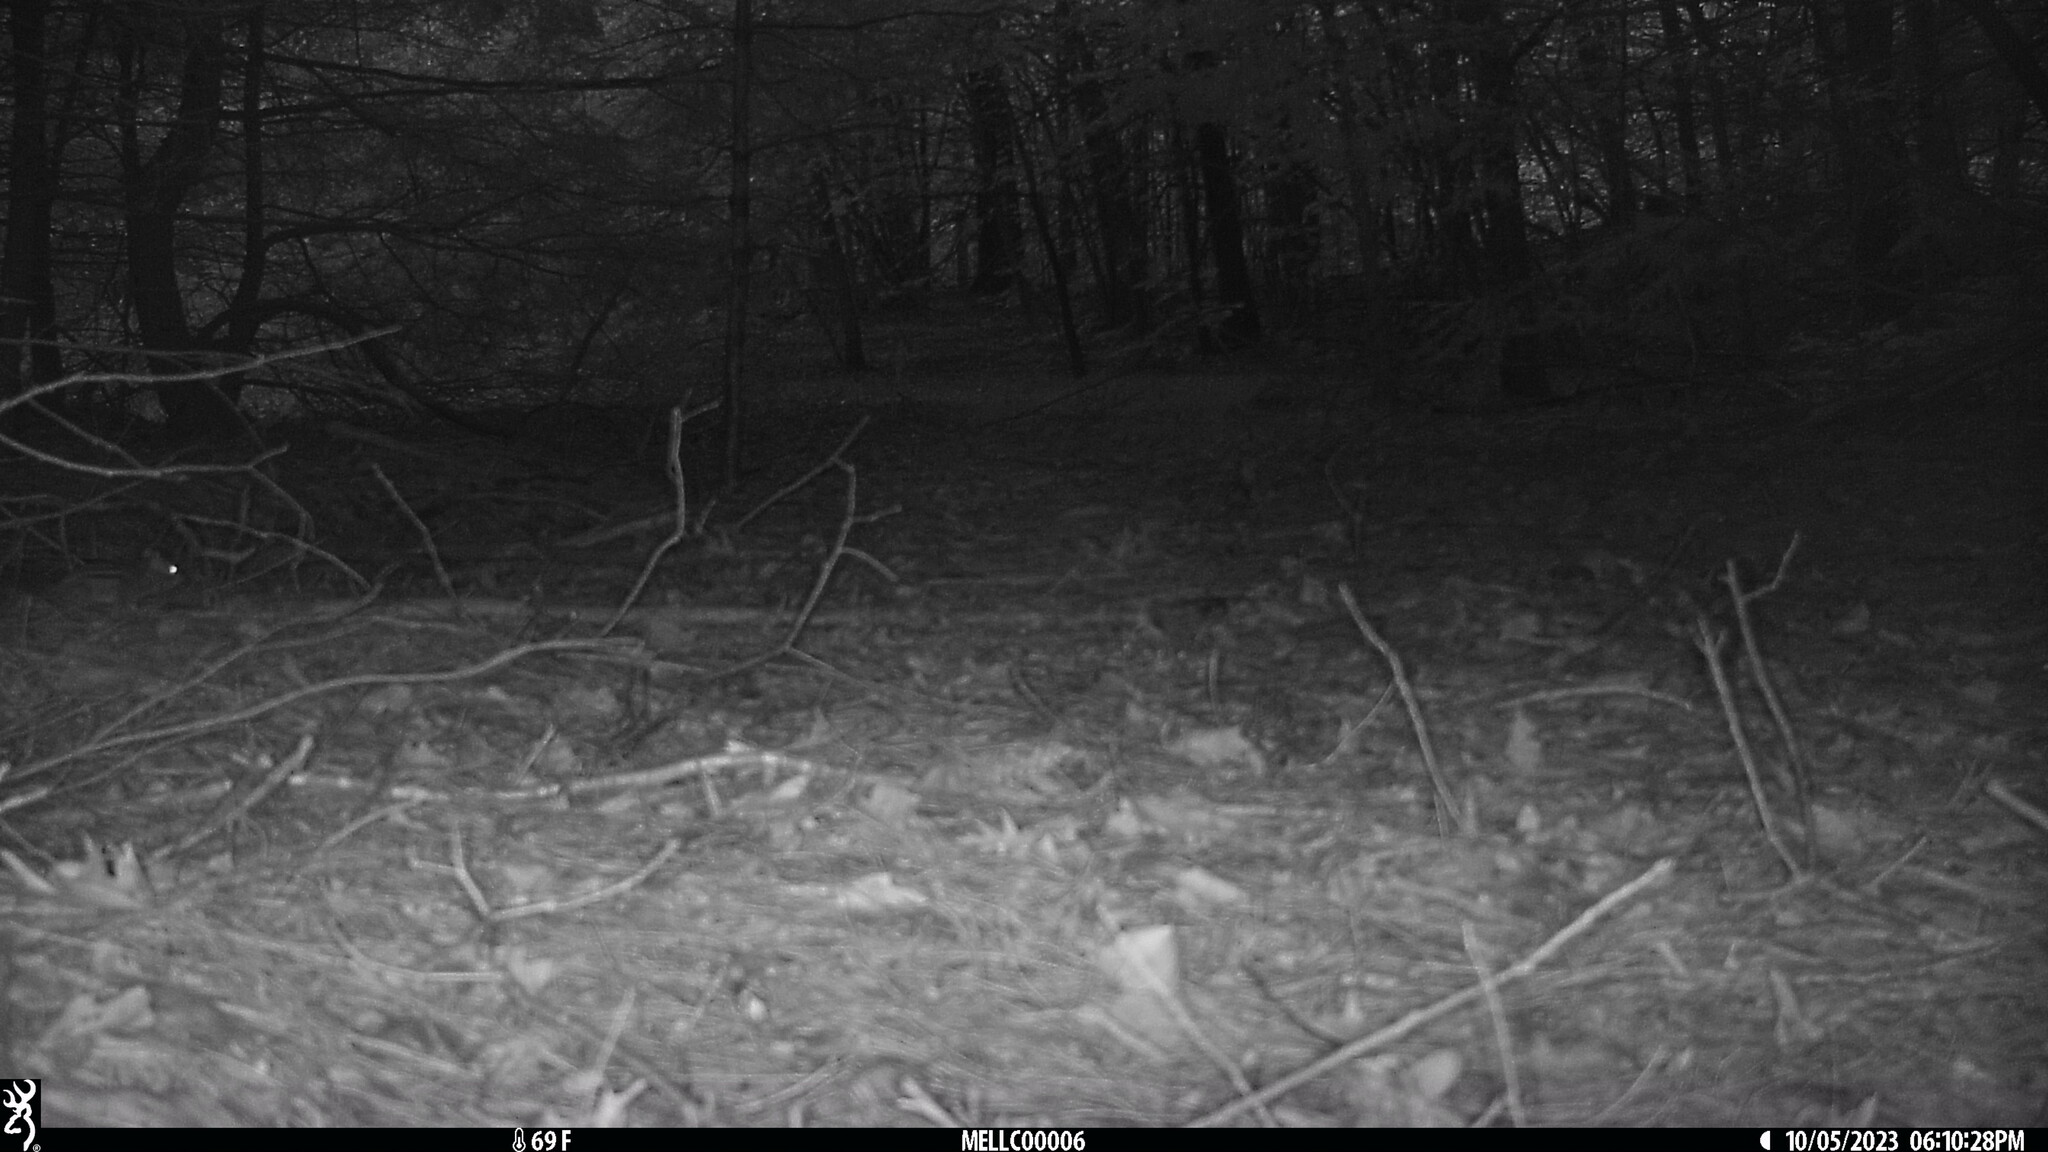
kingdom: Animalia
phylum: Chordata
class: Mammalia
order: Rodentia
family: Sciuridae
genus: Tamias
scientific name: Tamias striatus
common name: Eastern chipmunk
